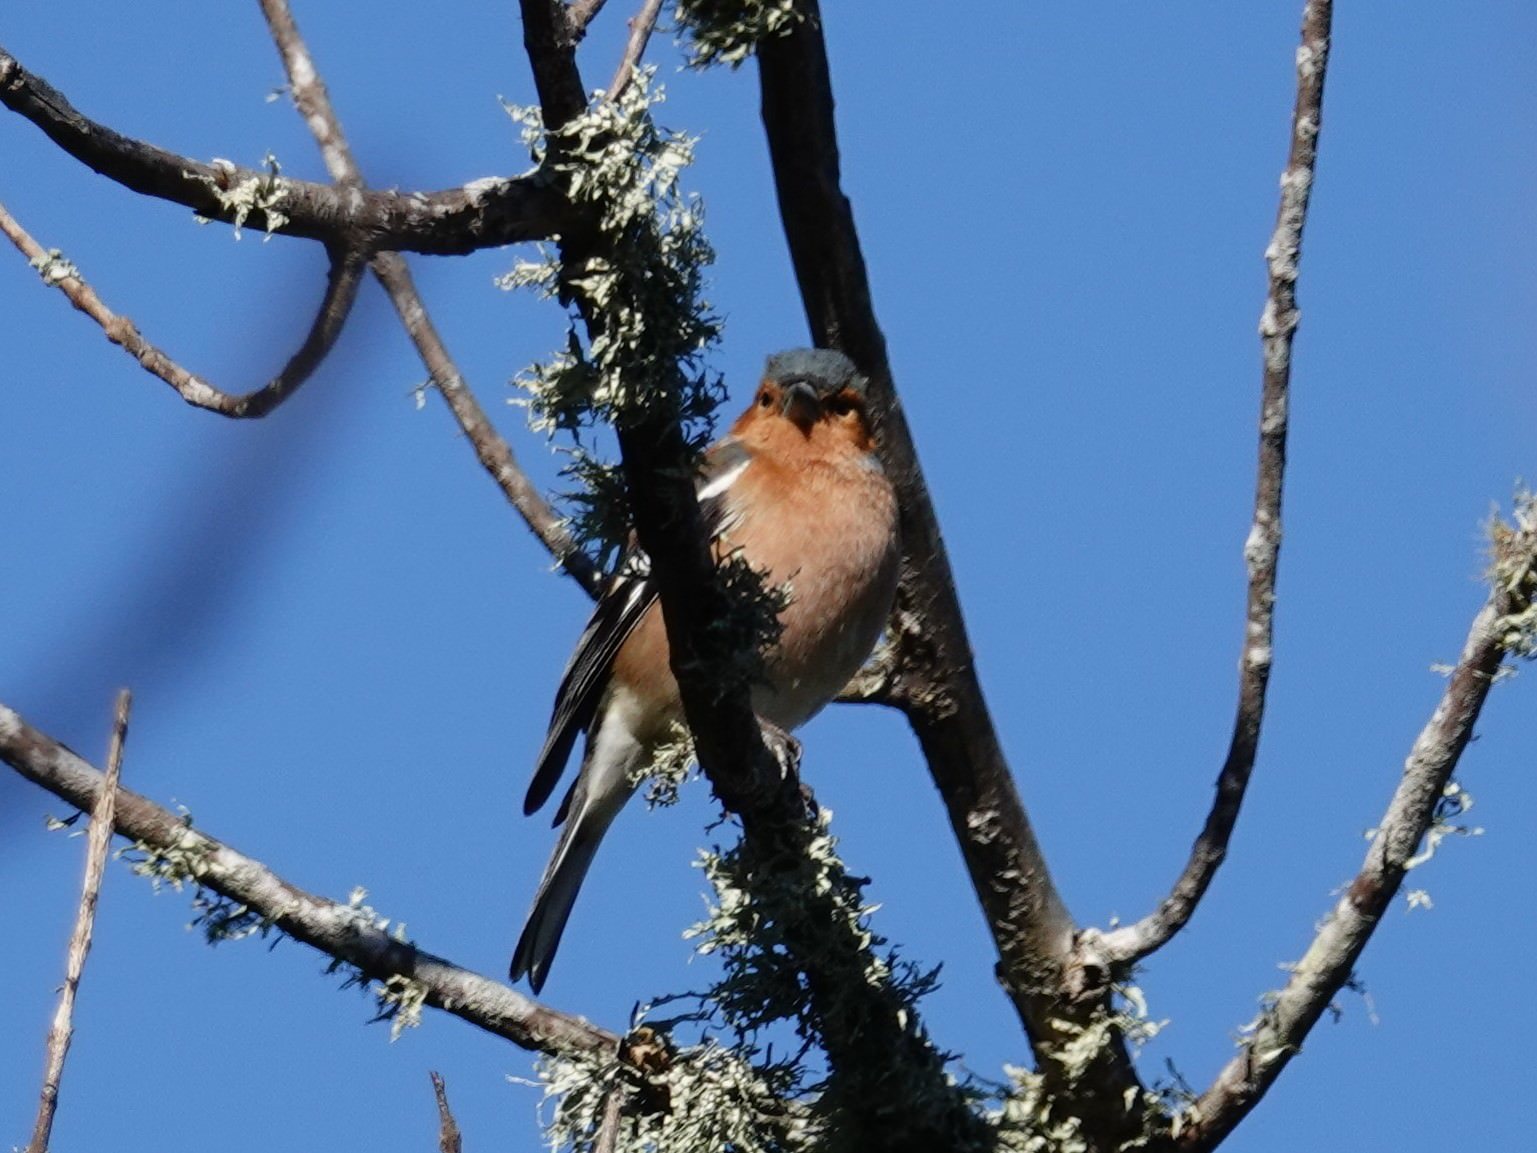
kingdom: Animalia
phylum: Chordata
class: Aves
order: Passeriformes
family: Fringillidae
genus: Fringilla
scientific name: Fringilla coelebs
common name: Common chaffinch
